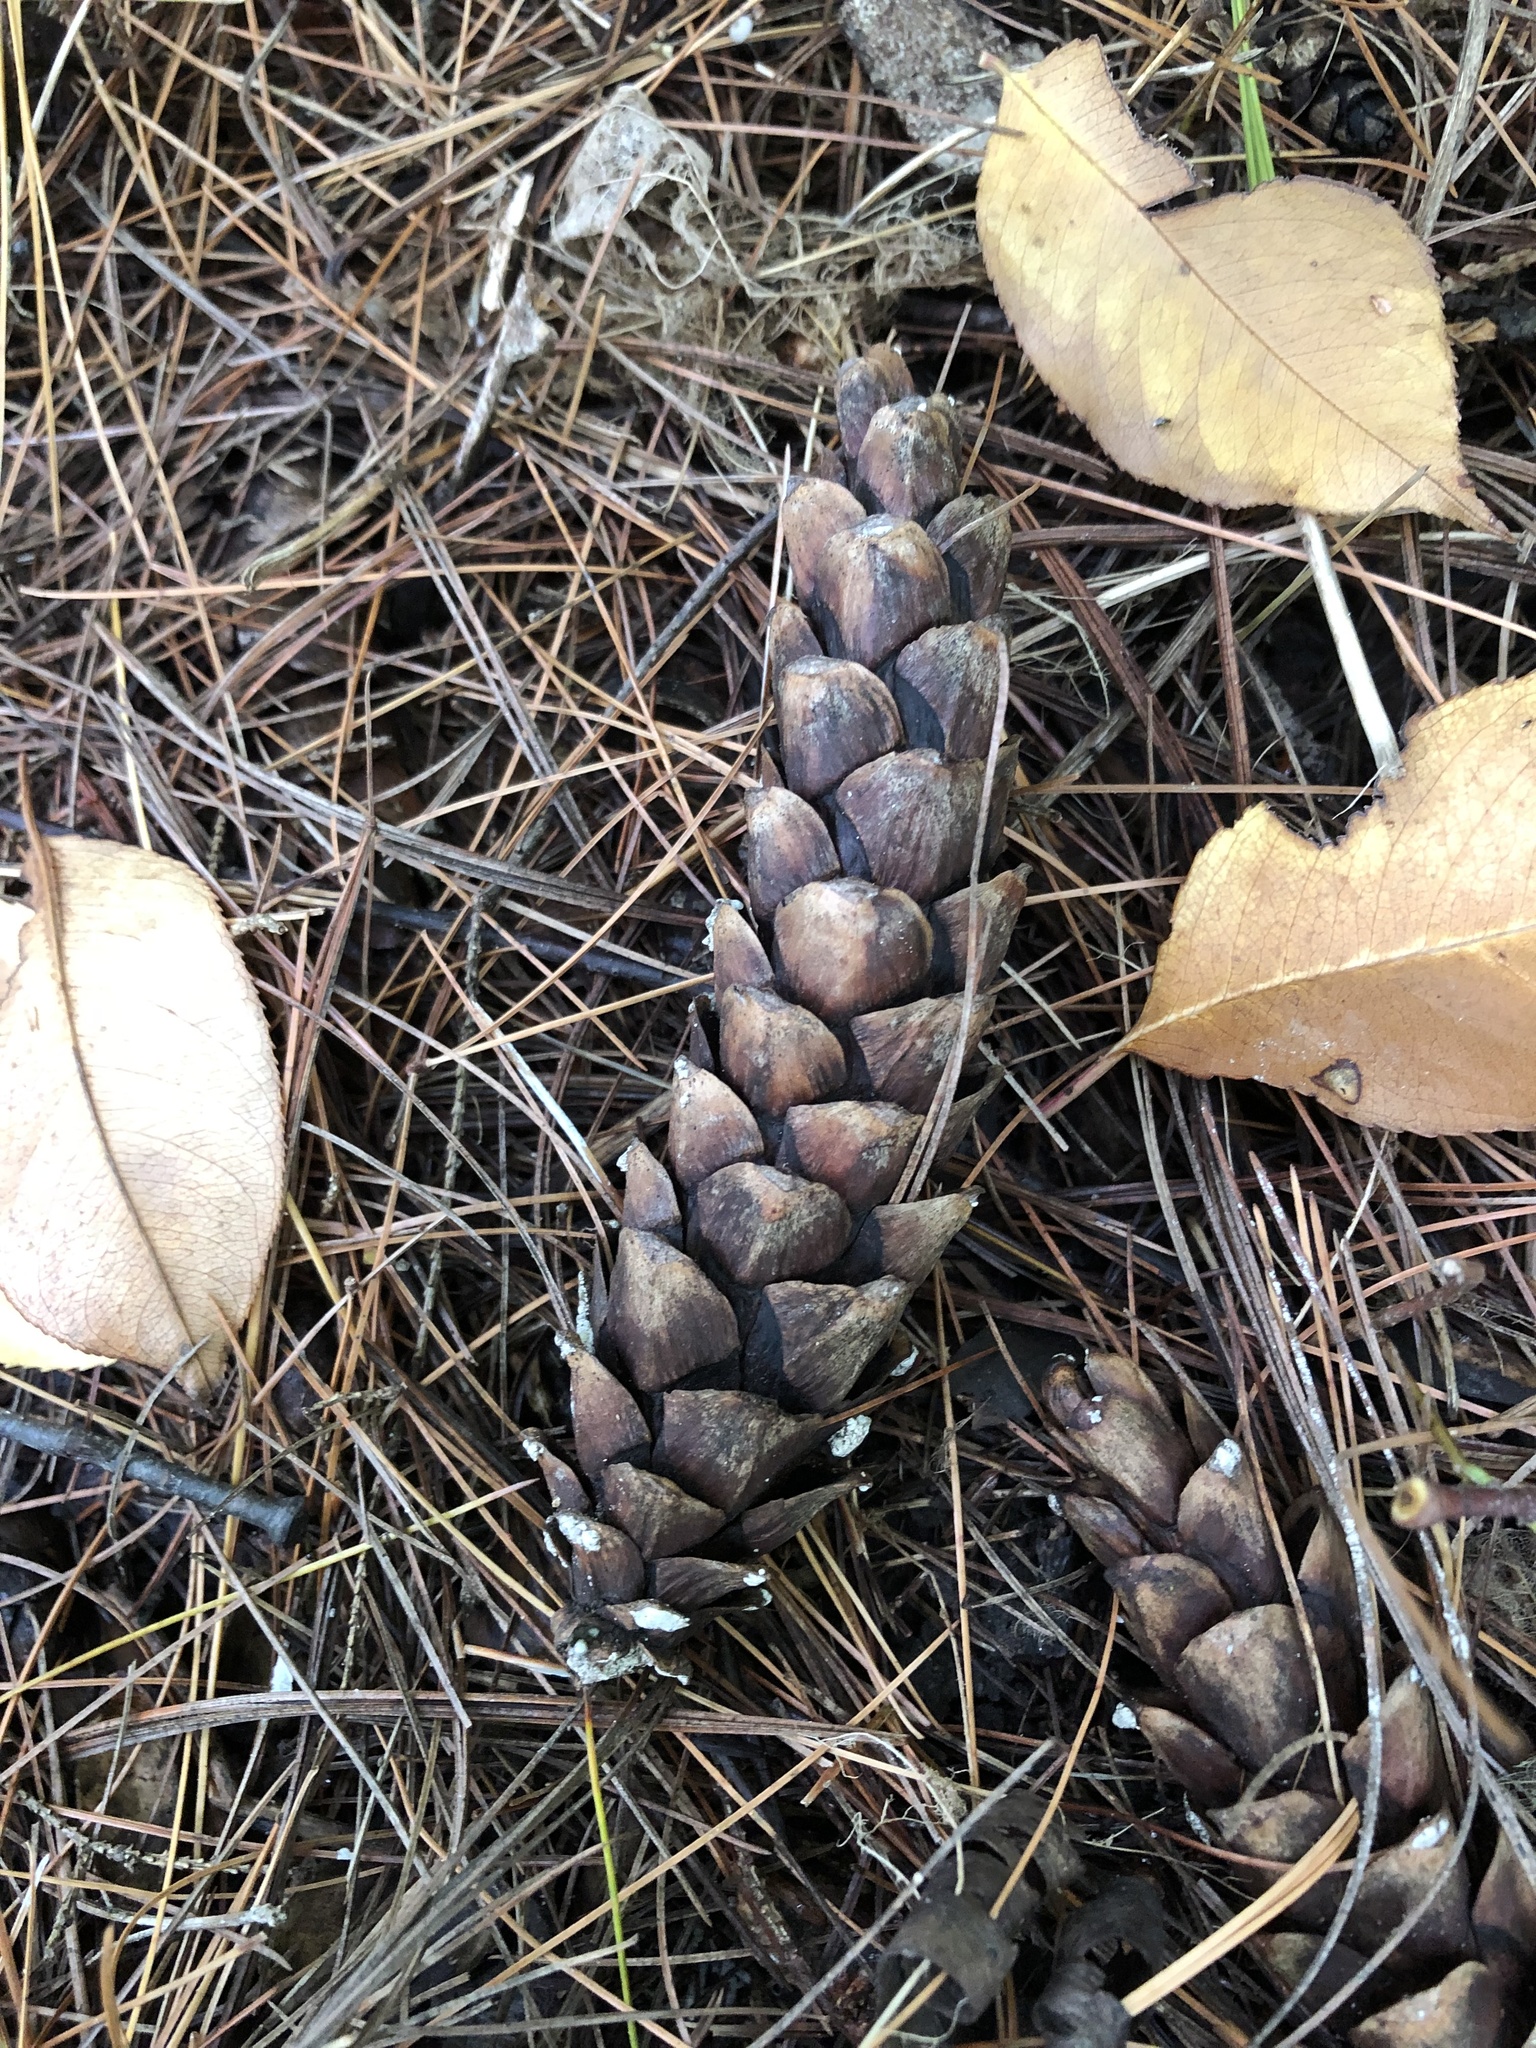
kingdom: Plantae
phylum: Tracheophyta
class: Pinopsida
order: Pinales
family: Pinaceae
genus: Pinus
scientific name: Pinus strobus
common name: Weymouth pine
